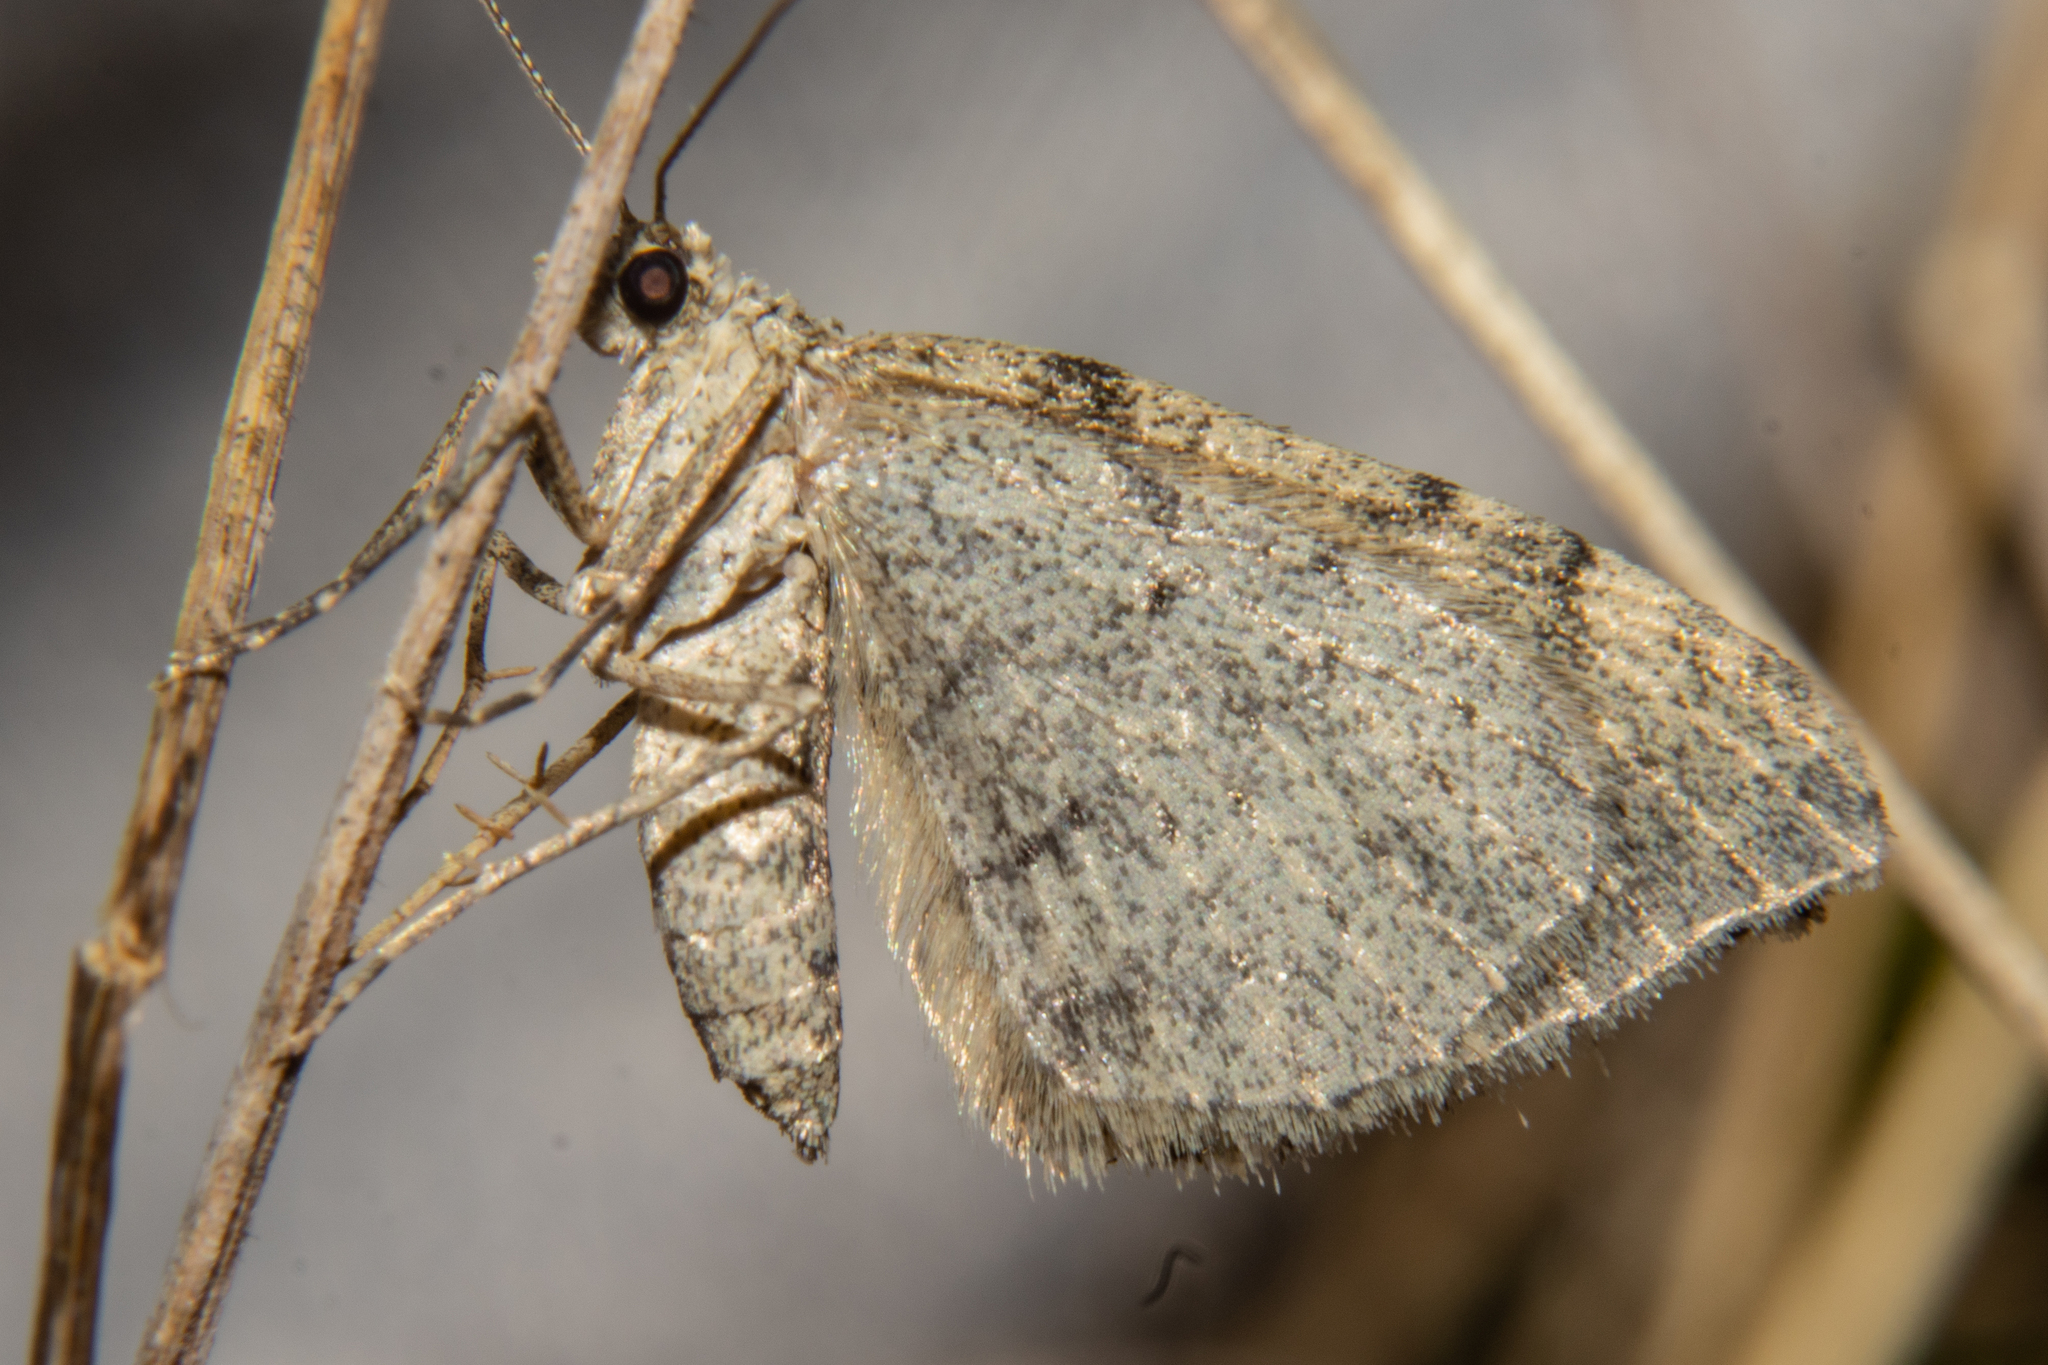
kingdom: Animalia
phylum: Arthropoda
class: Insecta
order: Lepidoptera
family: Geometridae
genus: Helastia
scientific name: Helastia cinerearia
